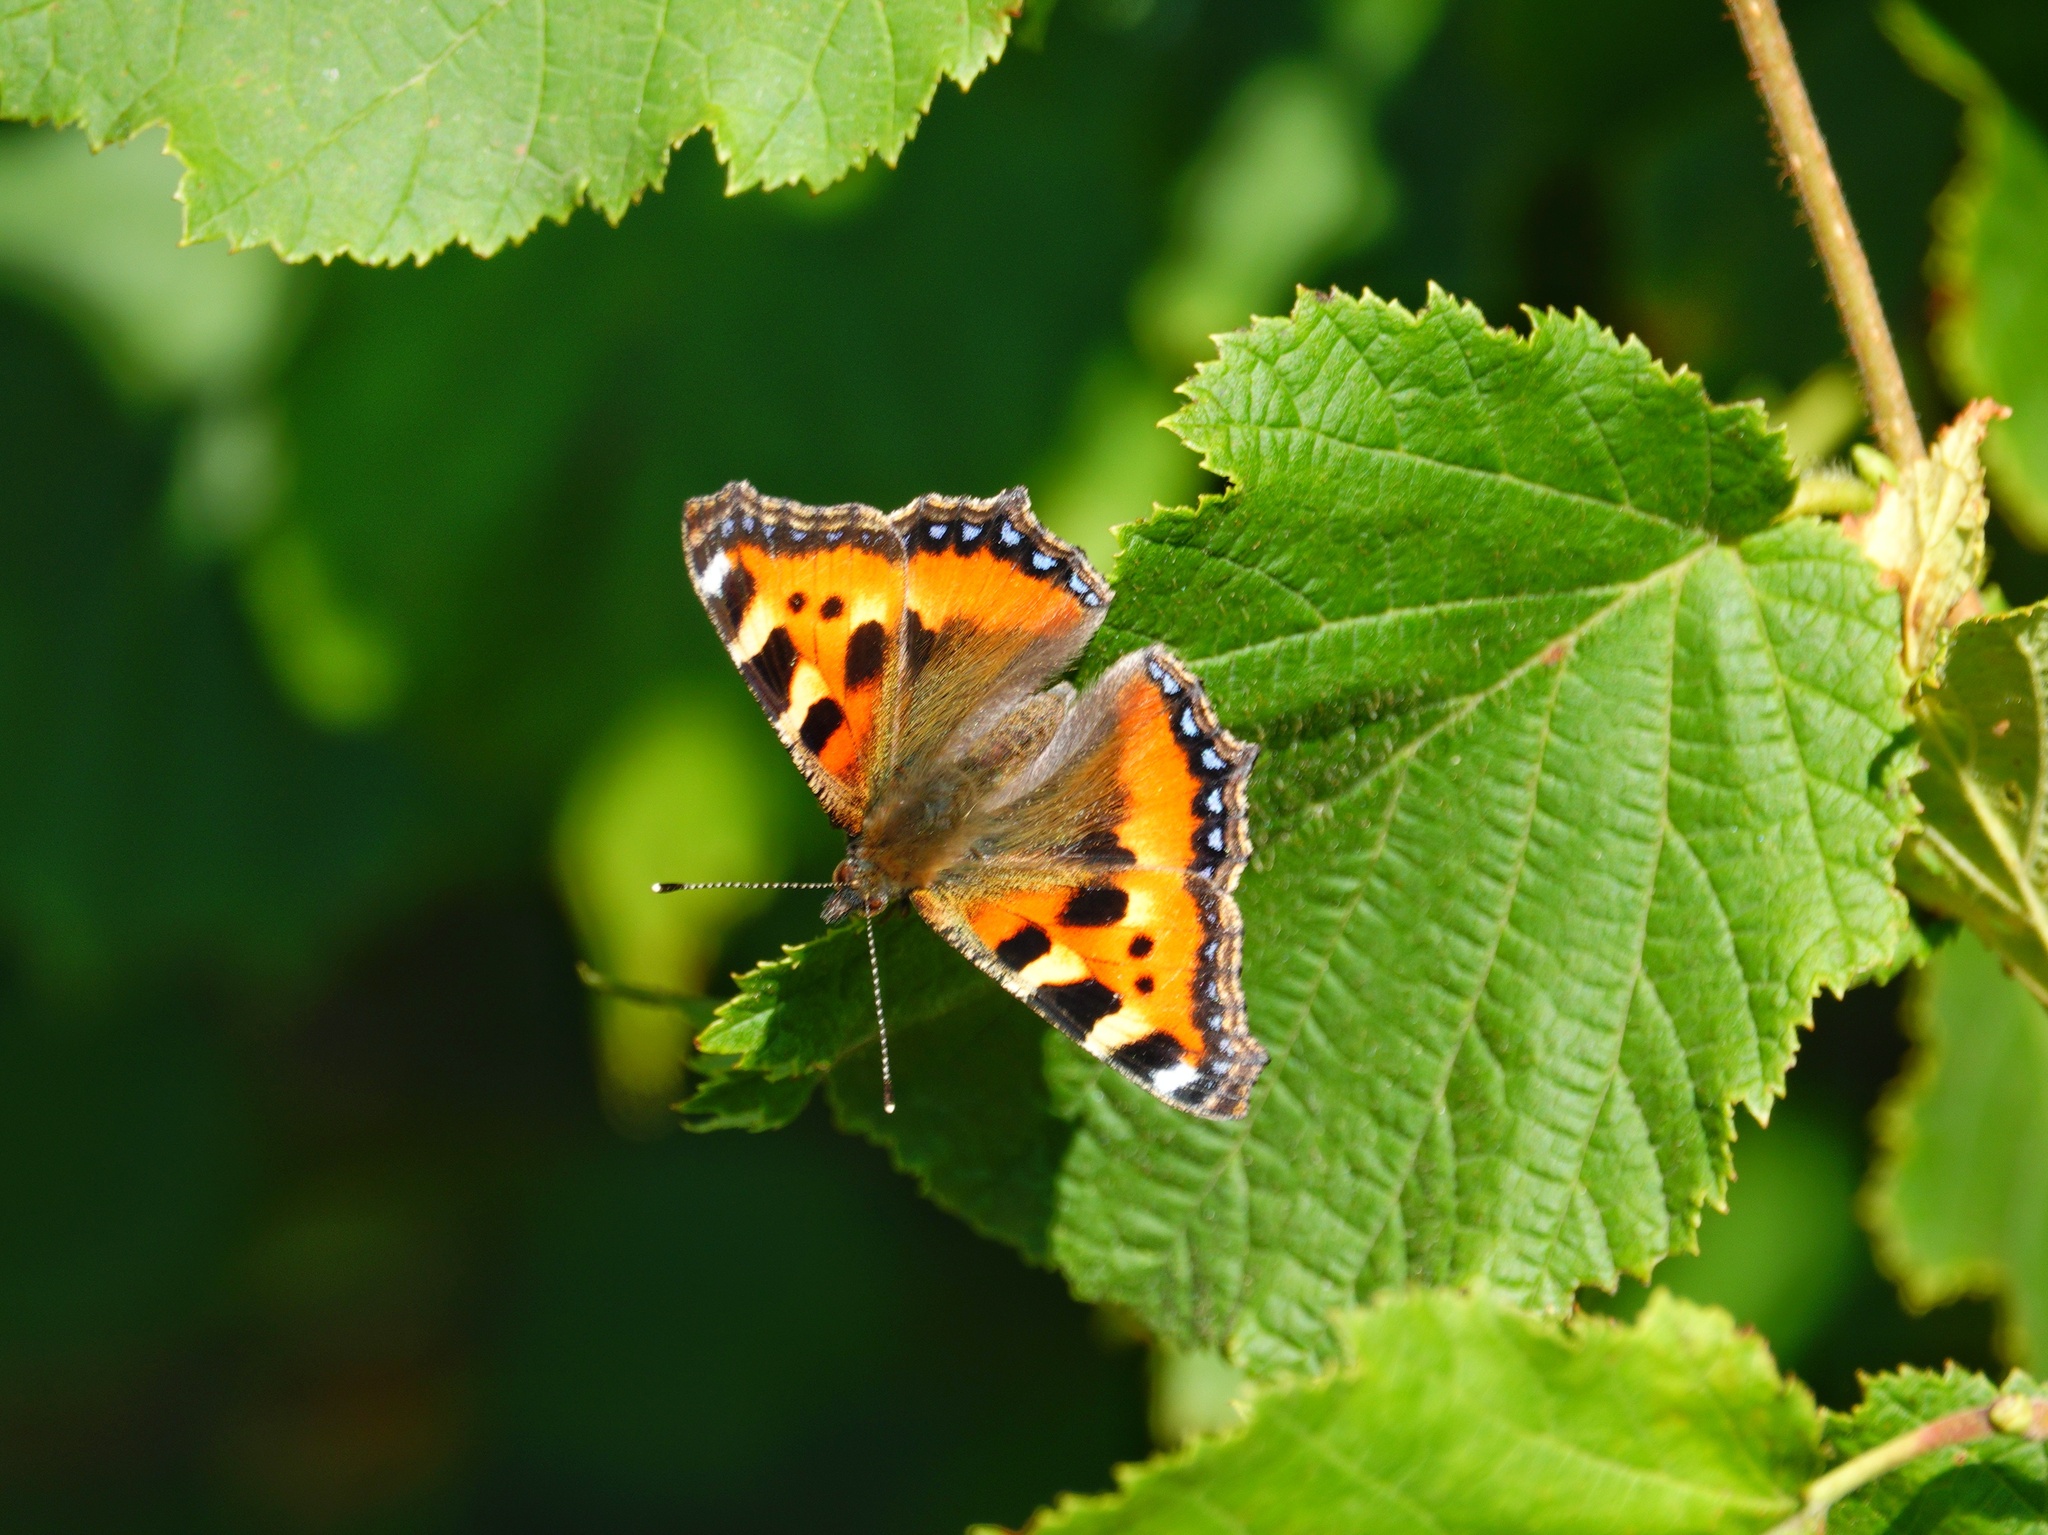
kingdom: Animalia
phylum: Arthropoda
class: Insecta
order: Lepidoptera
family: Nymphalidae
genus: Aglais
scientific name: Aglais urticae
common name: Small tortoiseshell
